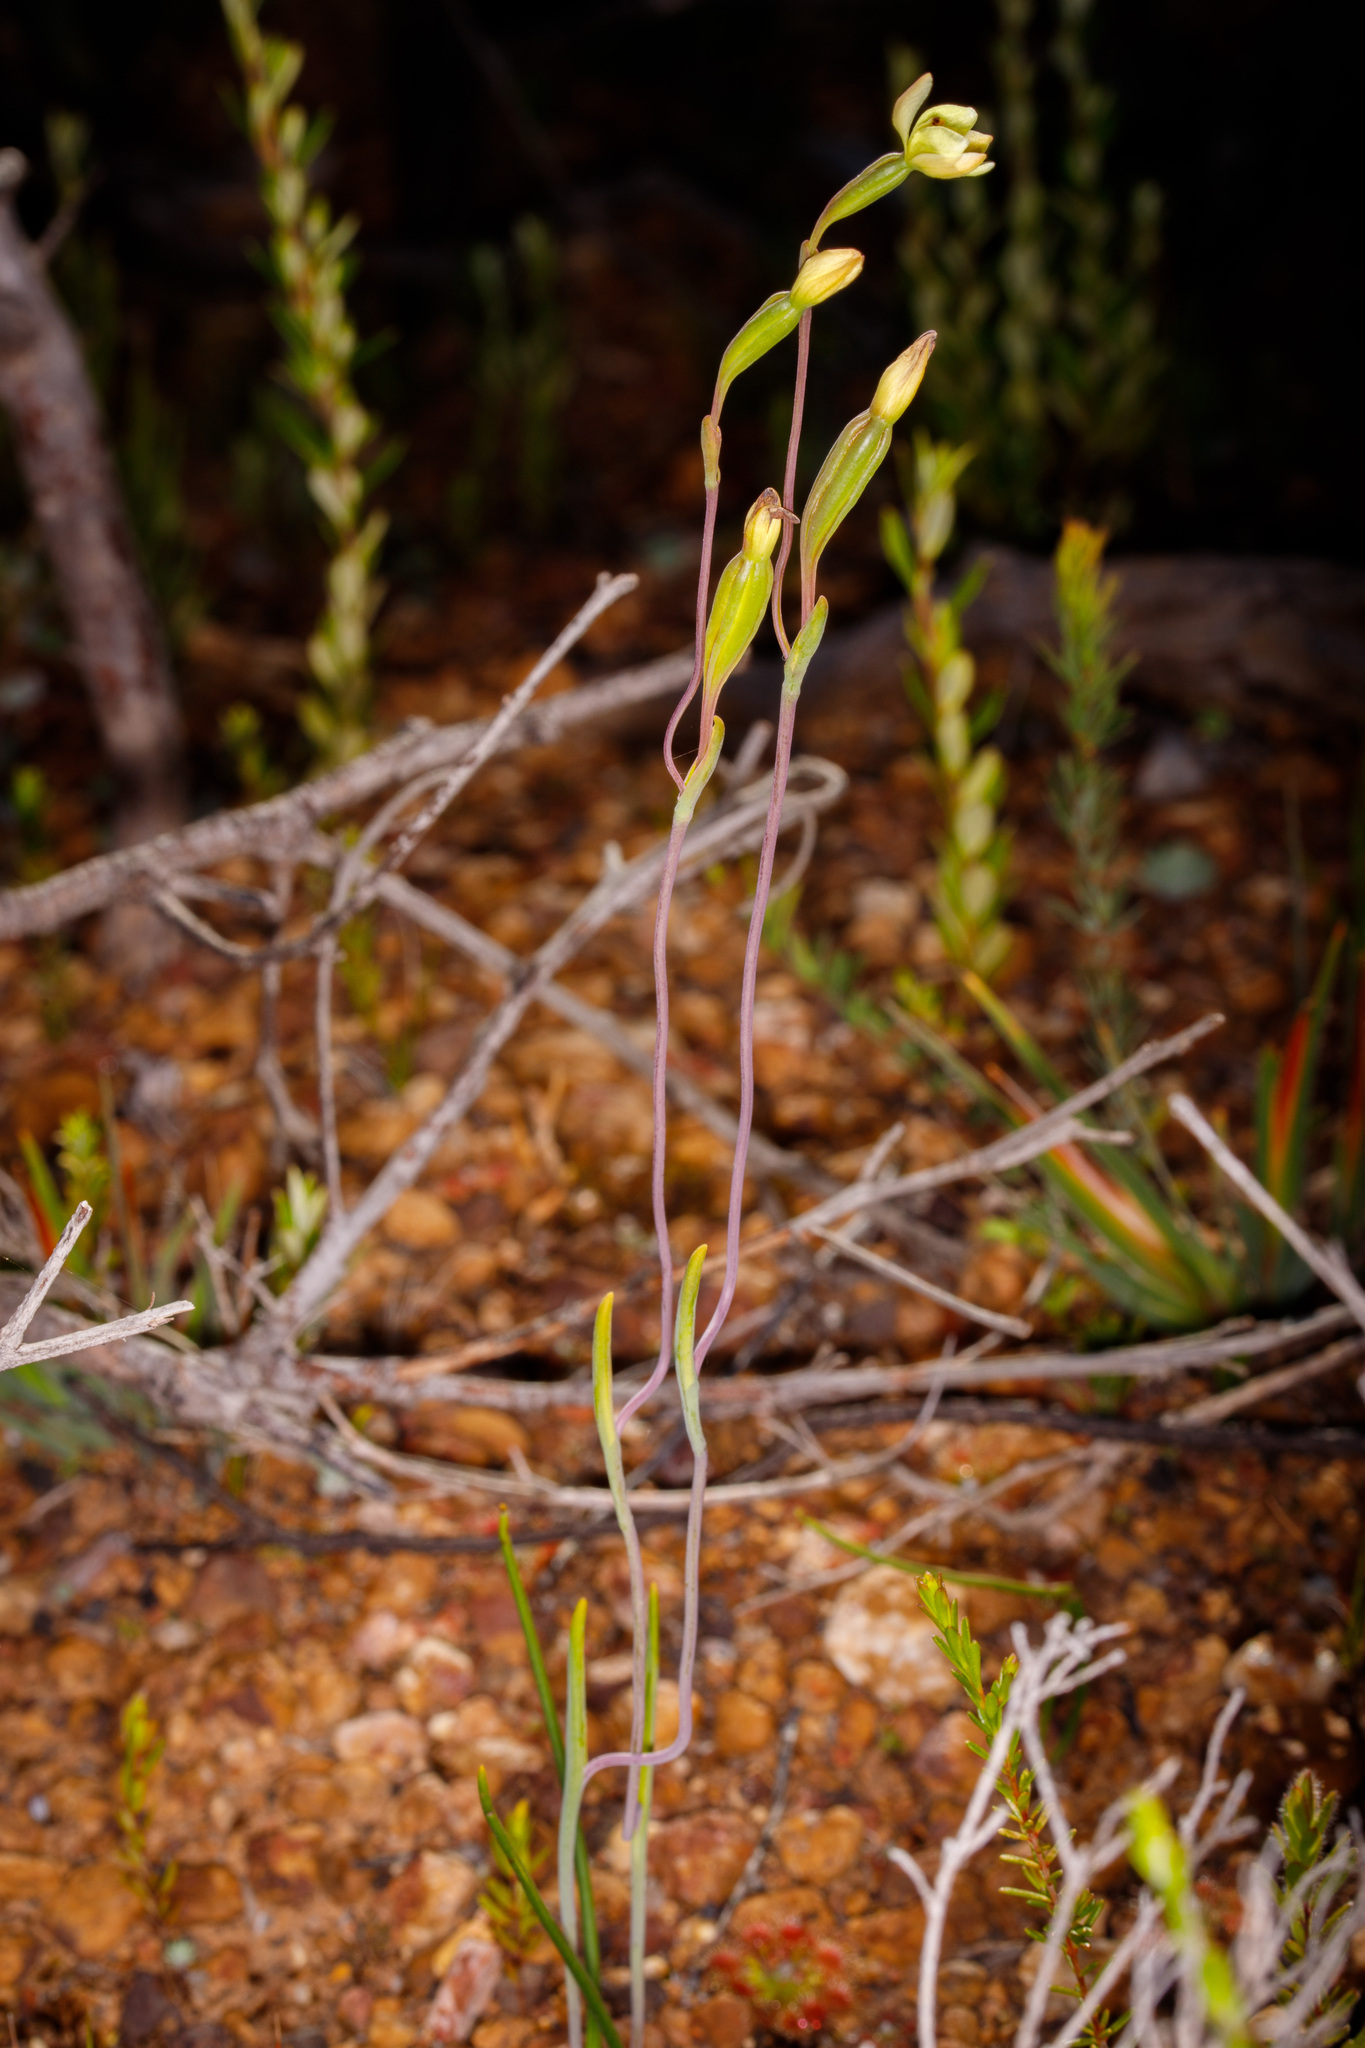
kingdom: Plantae
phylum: Tracheophyta
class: Liliopsida
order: Asparagales
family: Orchidaceae
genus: Thelymitra
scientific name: Thelymitra flexuosa
